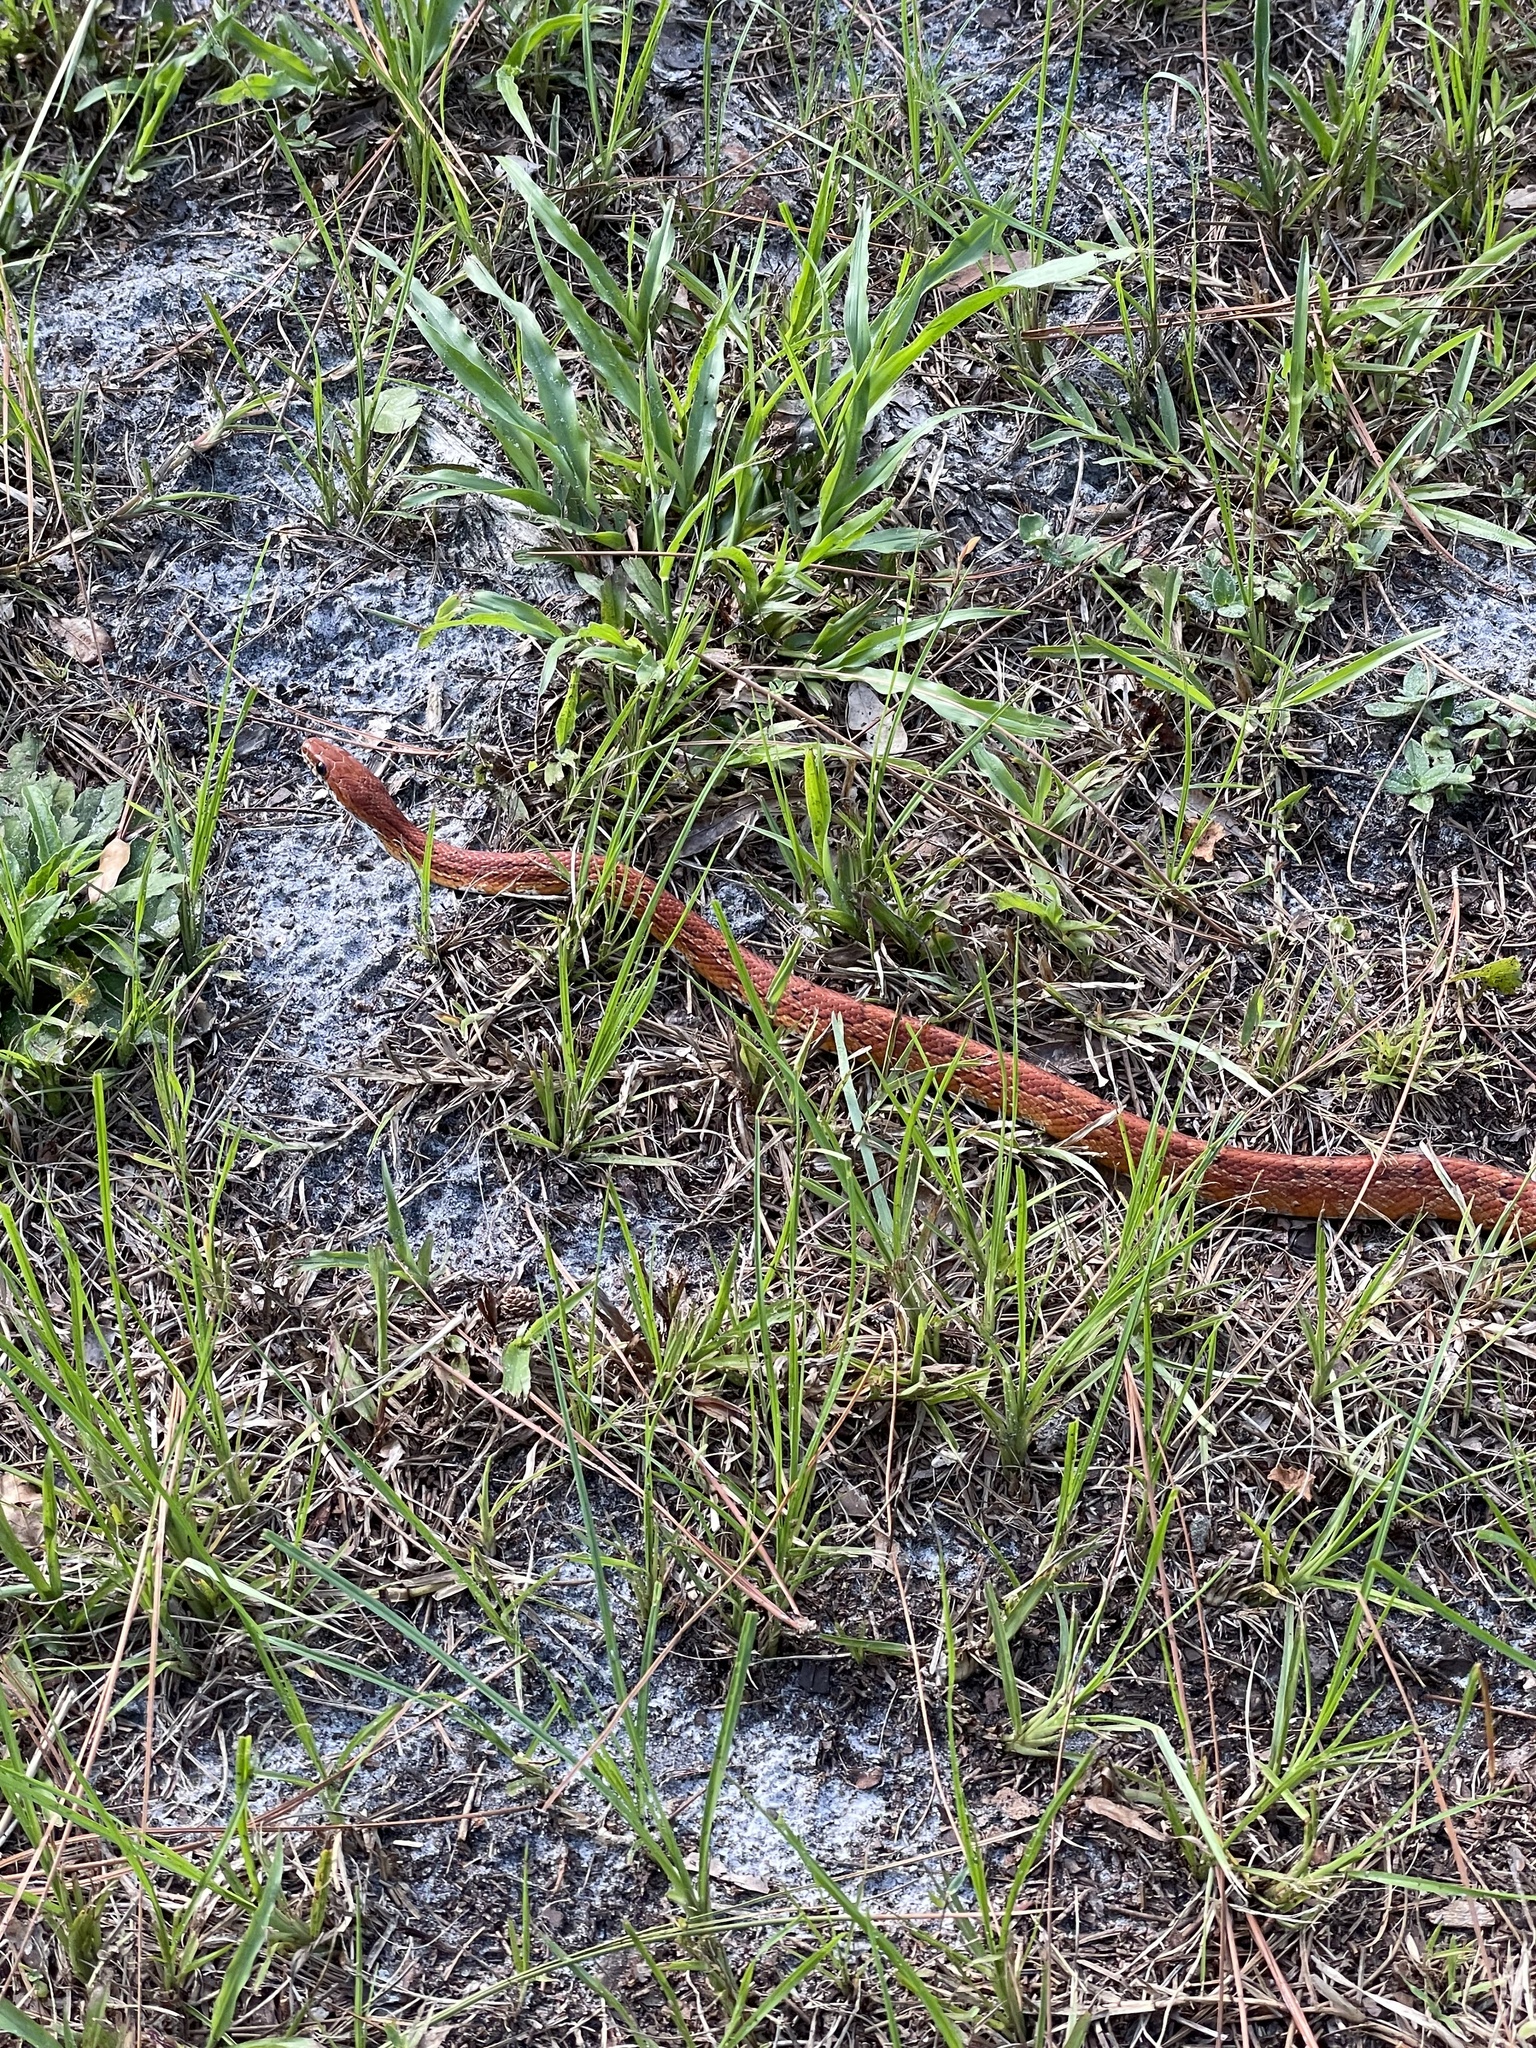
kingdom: Animalia
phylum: Chordata
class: Squamata
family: Colubridae
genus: Pantherophis
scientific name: Pantherophis guttatus
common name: Red cornsnake
